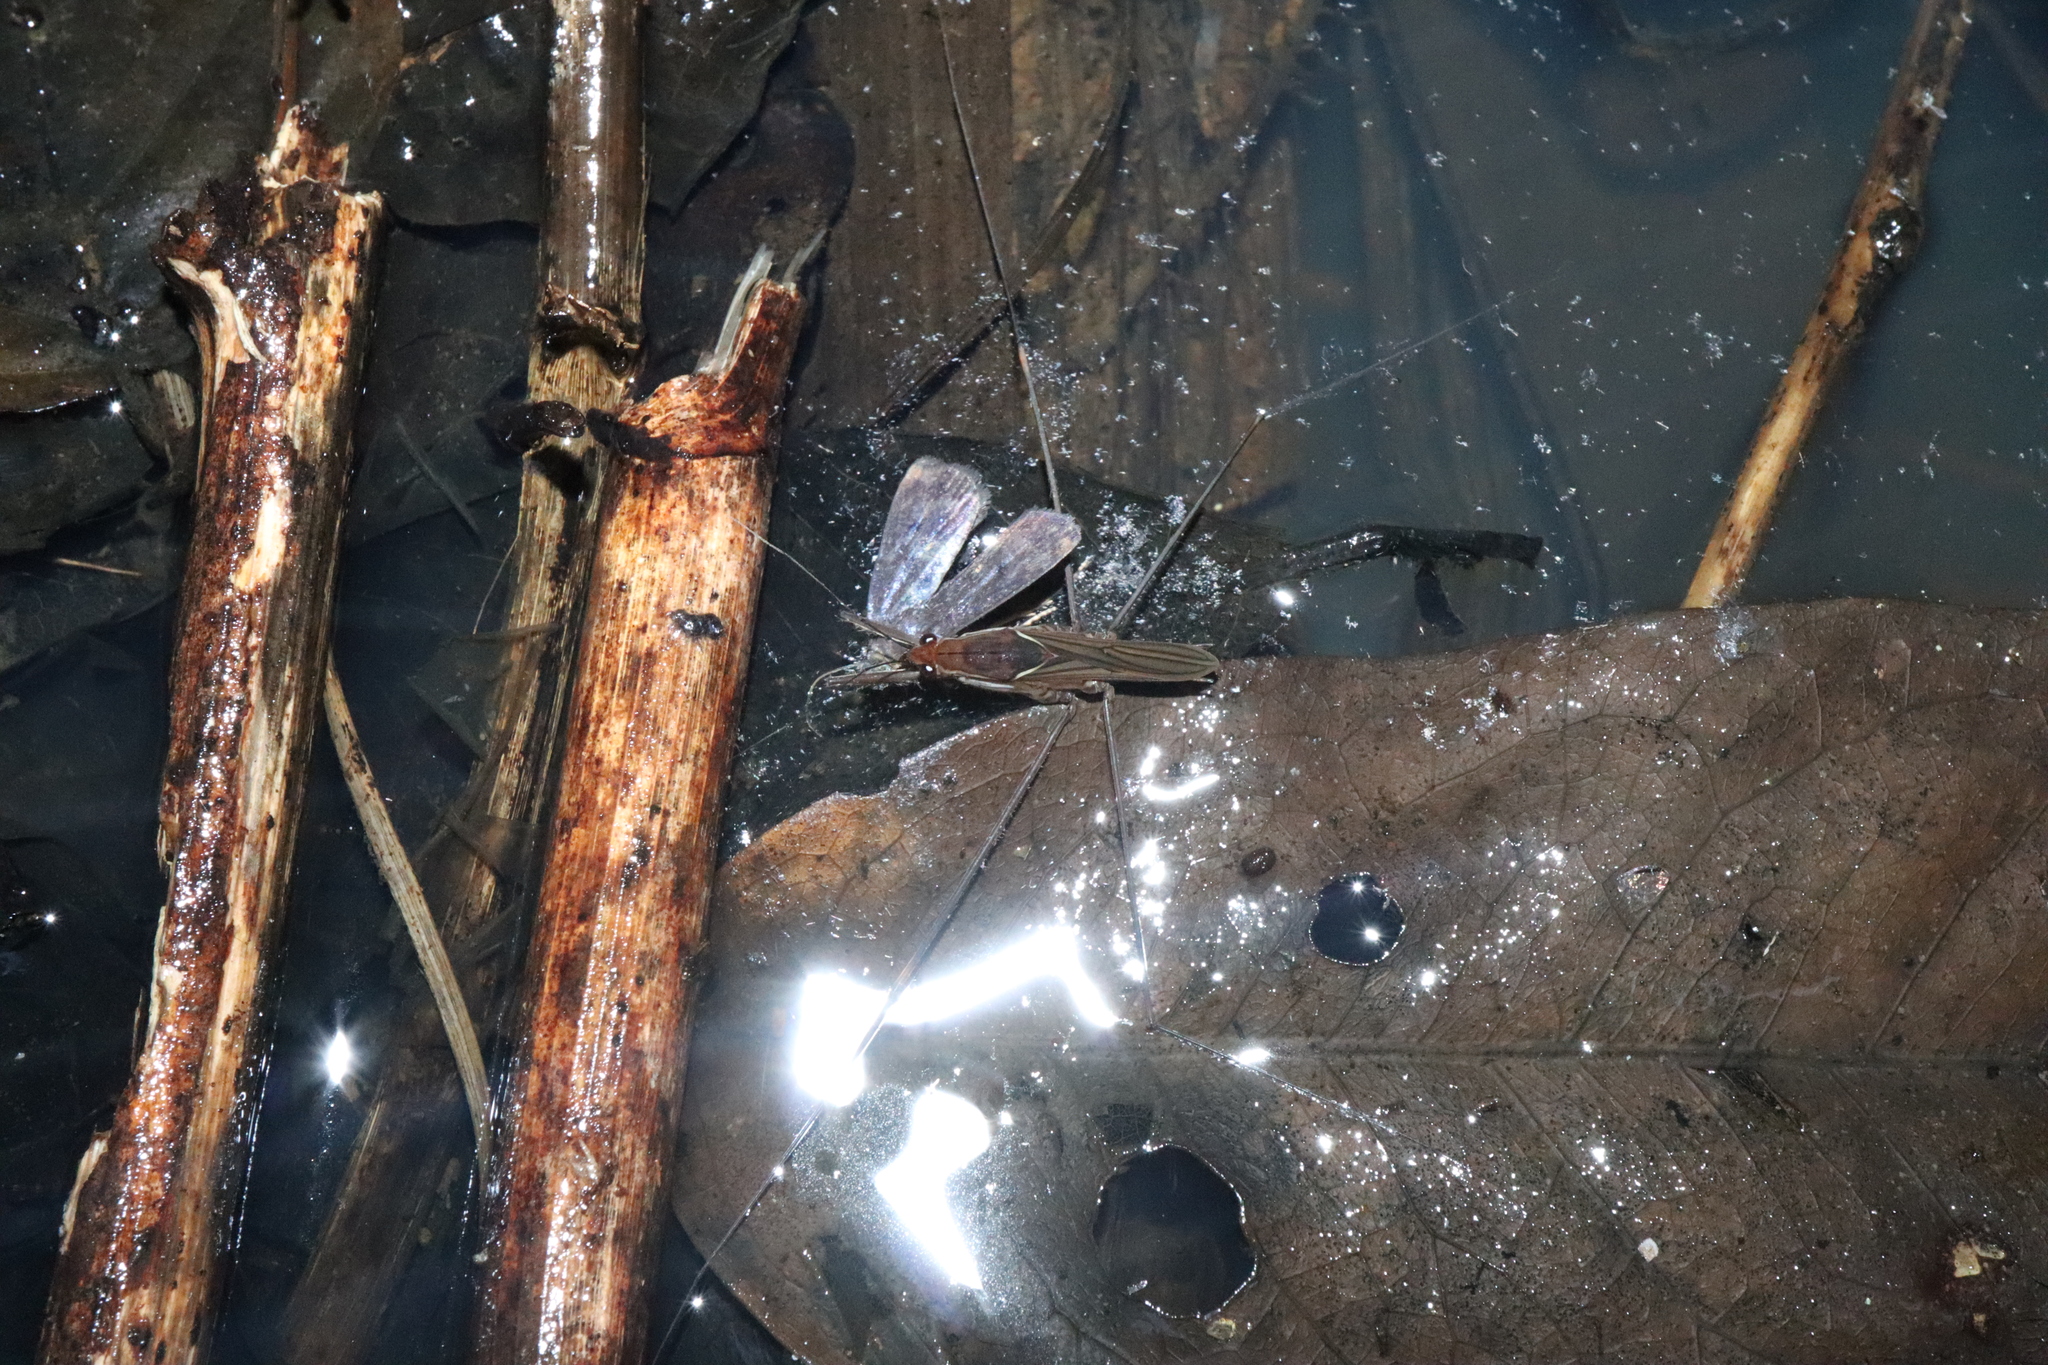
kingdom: Animalia
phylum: Arthropoda
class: Insecta
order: Hemiptera
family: Gerridae
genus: Limnometra
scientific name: Limnometra cursitans
